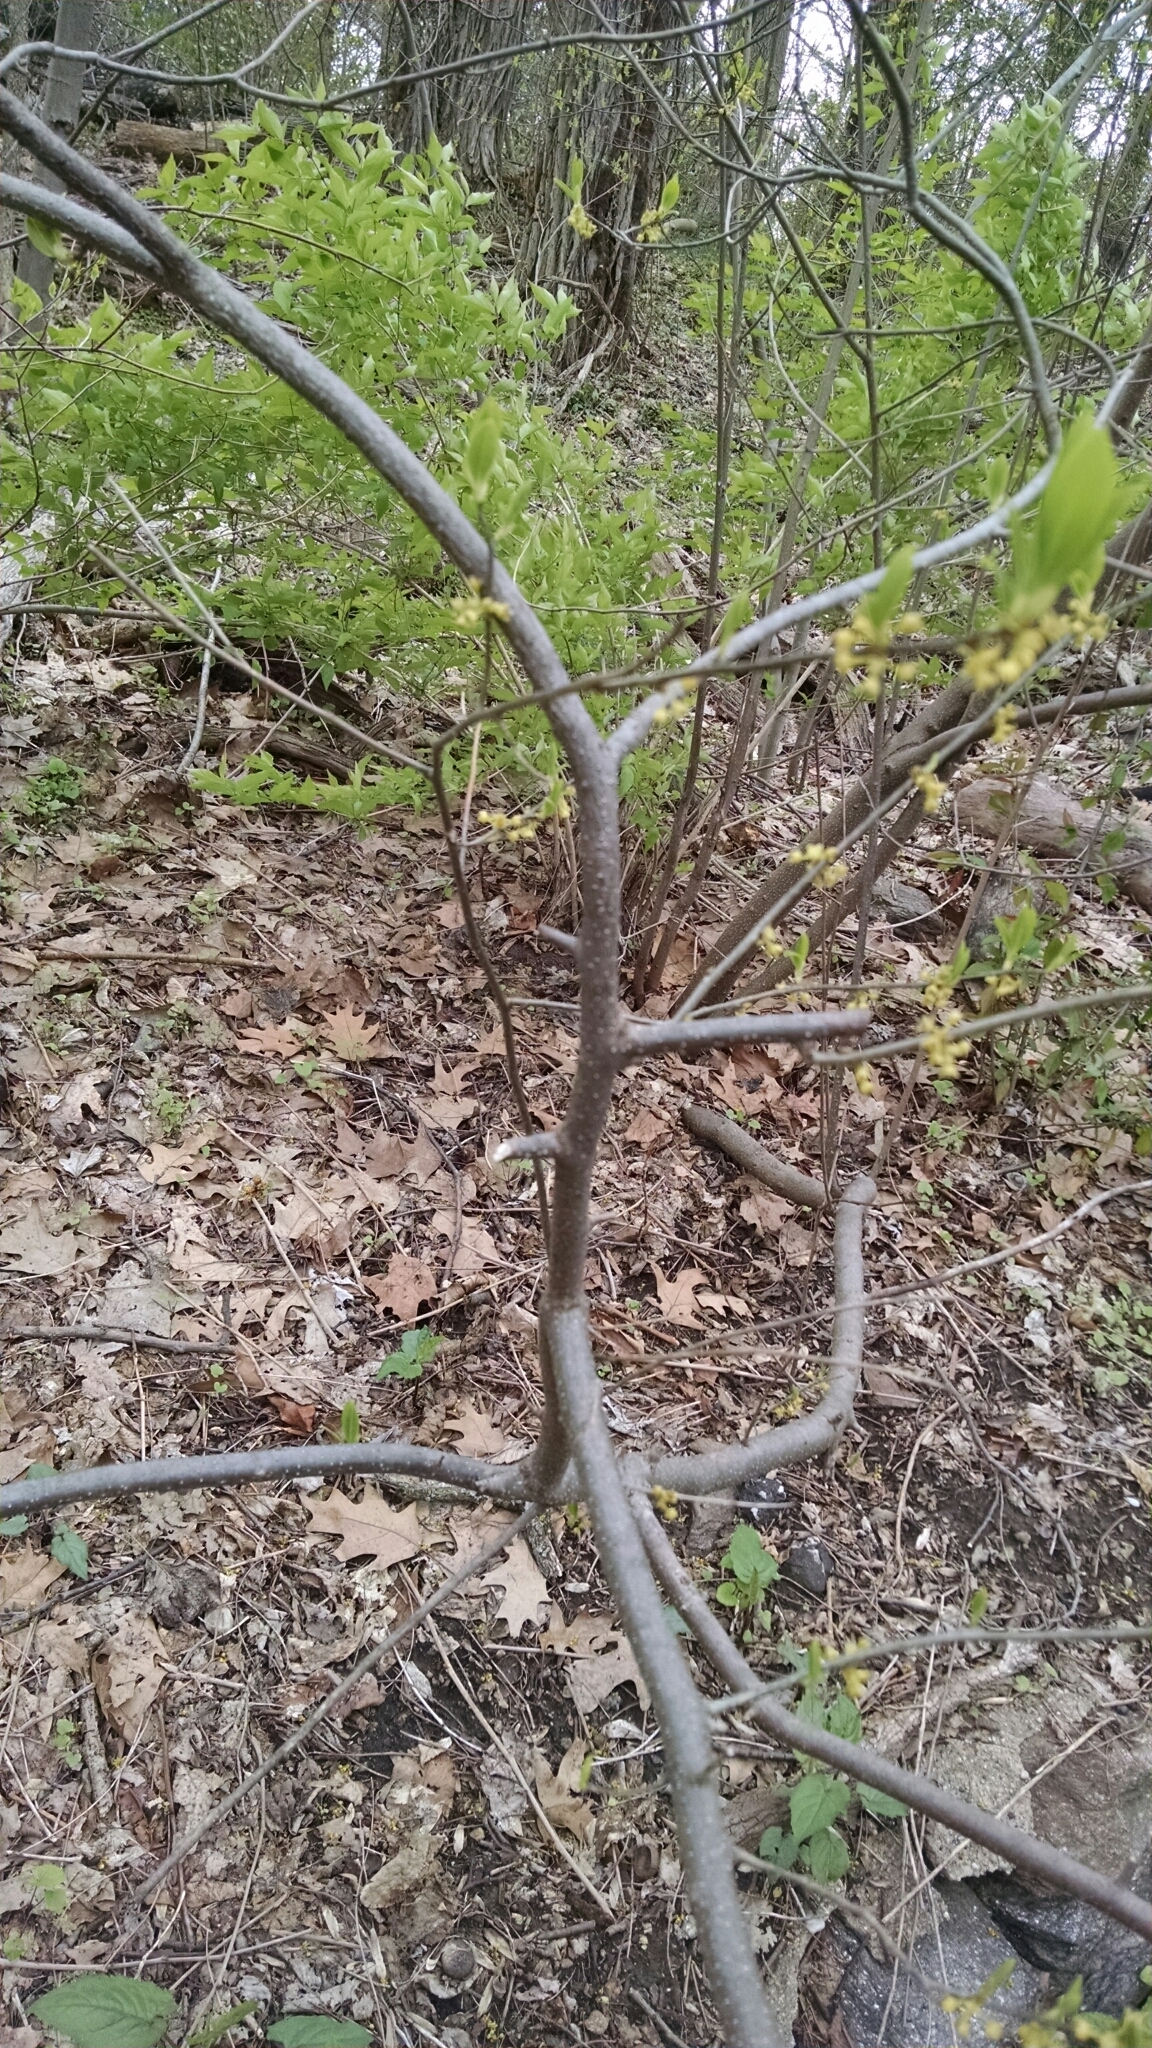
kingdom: Plantae
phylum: Tracheophyta
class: Magnoliopsida
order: Laurales
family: Lauraceae
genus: Lindera
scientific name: Lindera benzoin
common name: Spicebush
